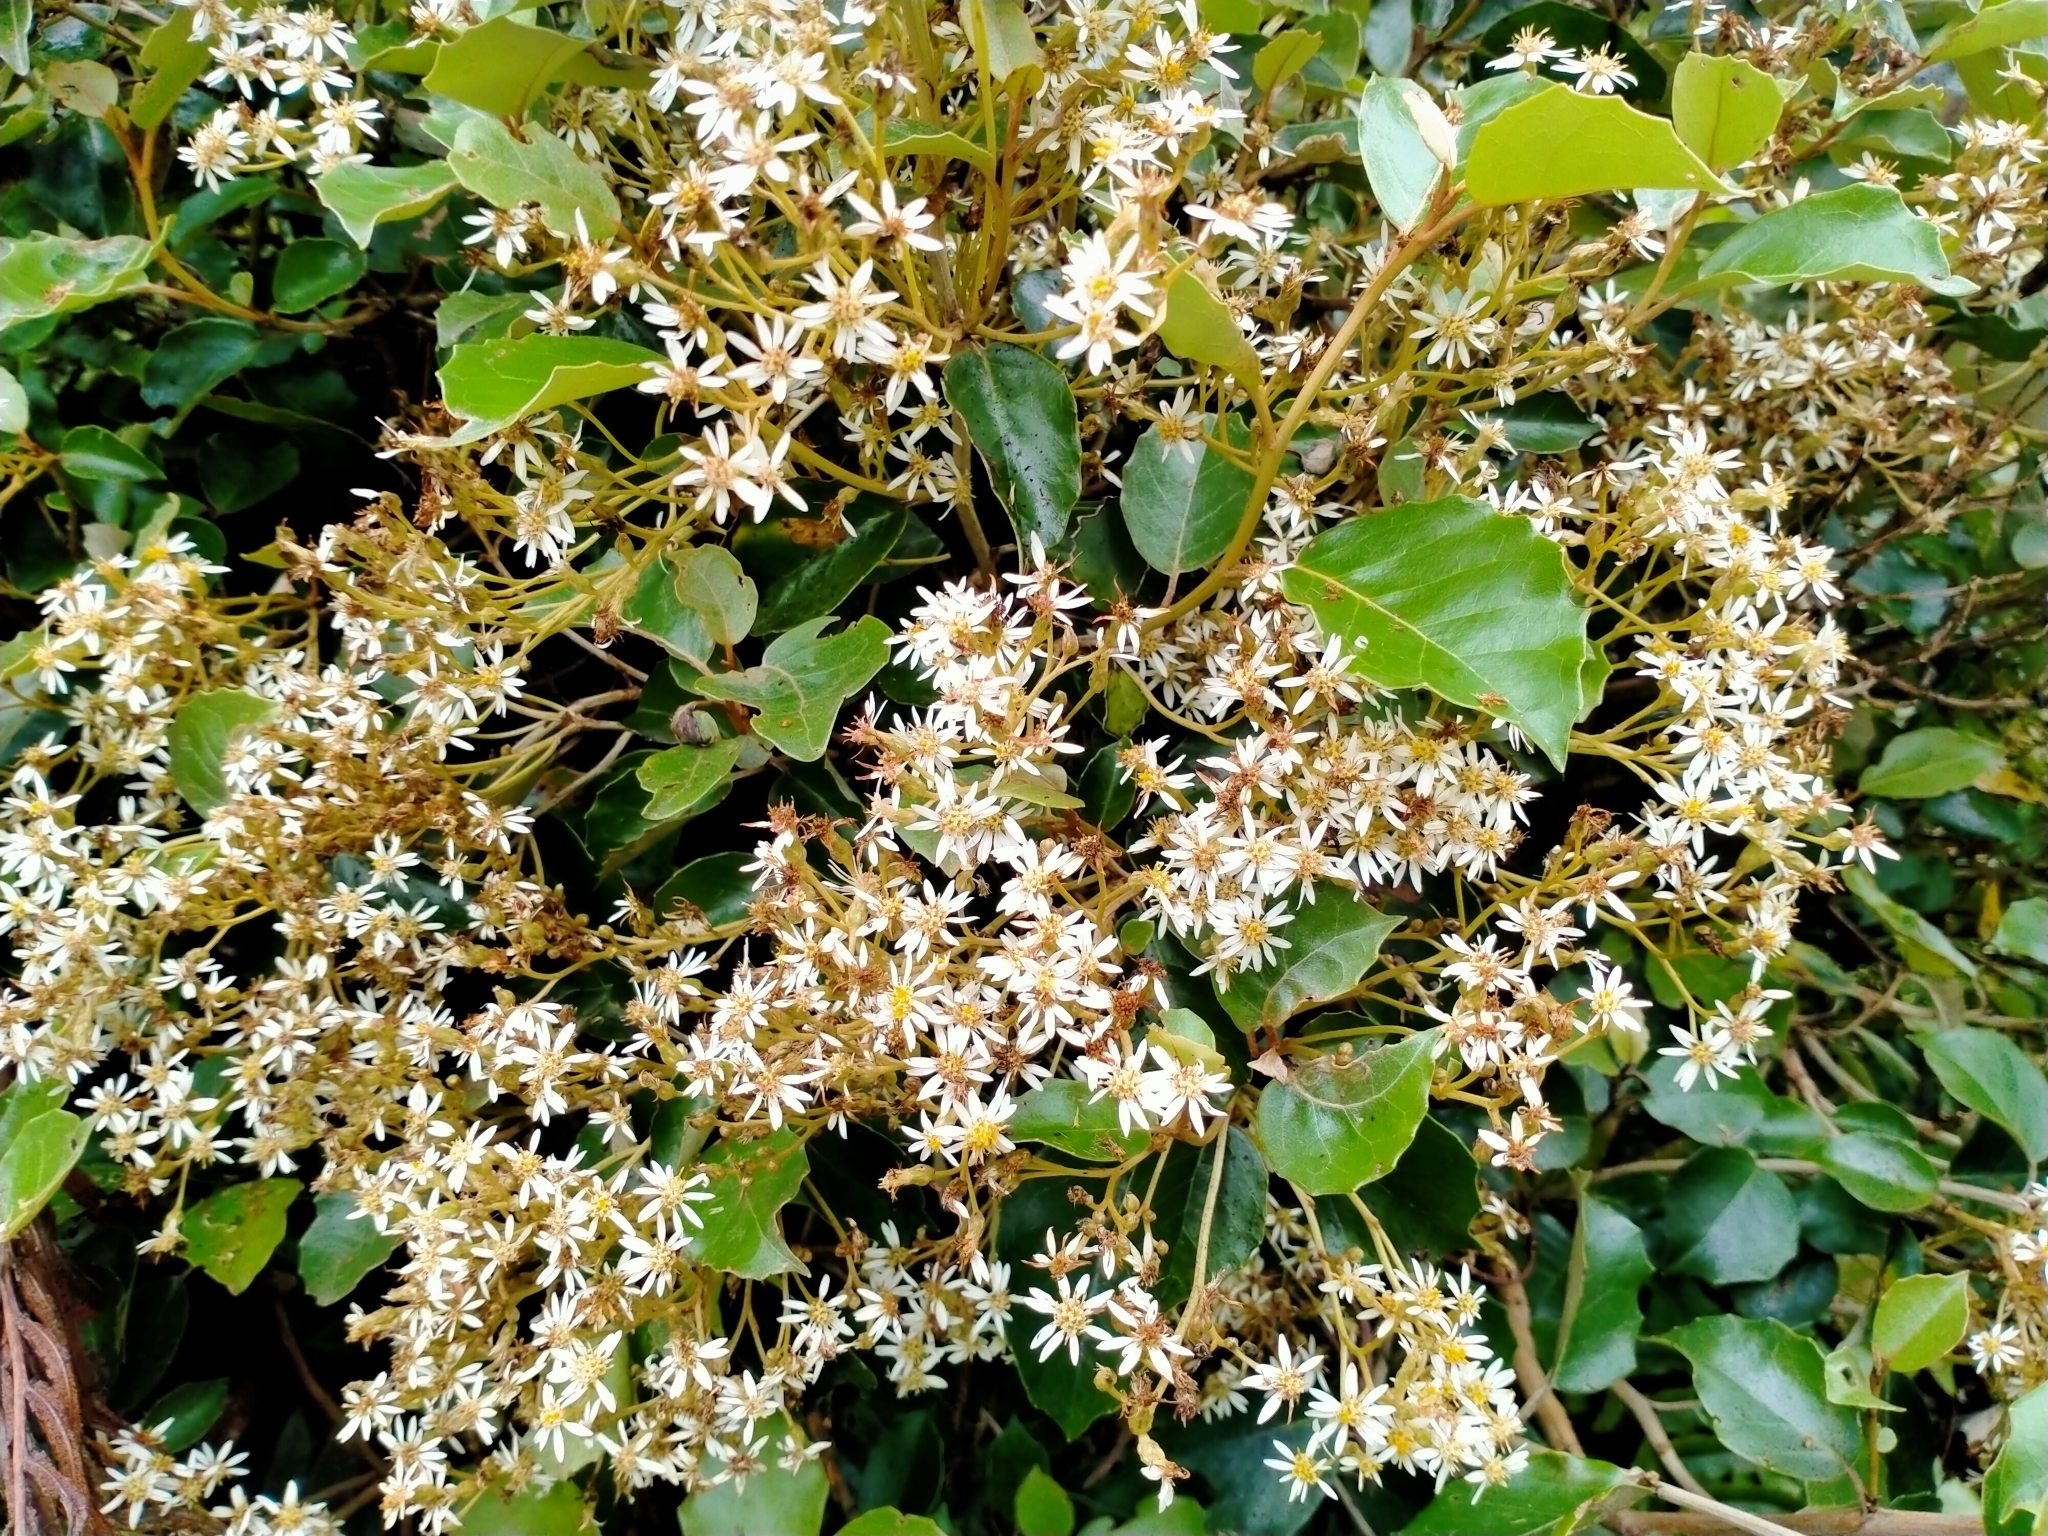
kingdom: Plantae
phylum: Tracheophyta
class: Magnoliopsida
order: Asterales
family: Asteraceae
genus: Olearia
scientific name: Olearia arborescens
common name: Glossy tree daisy
